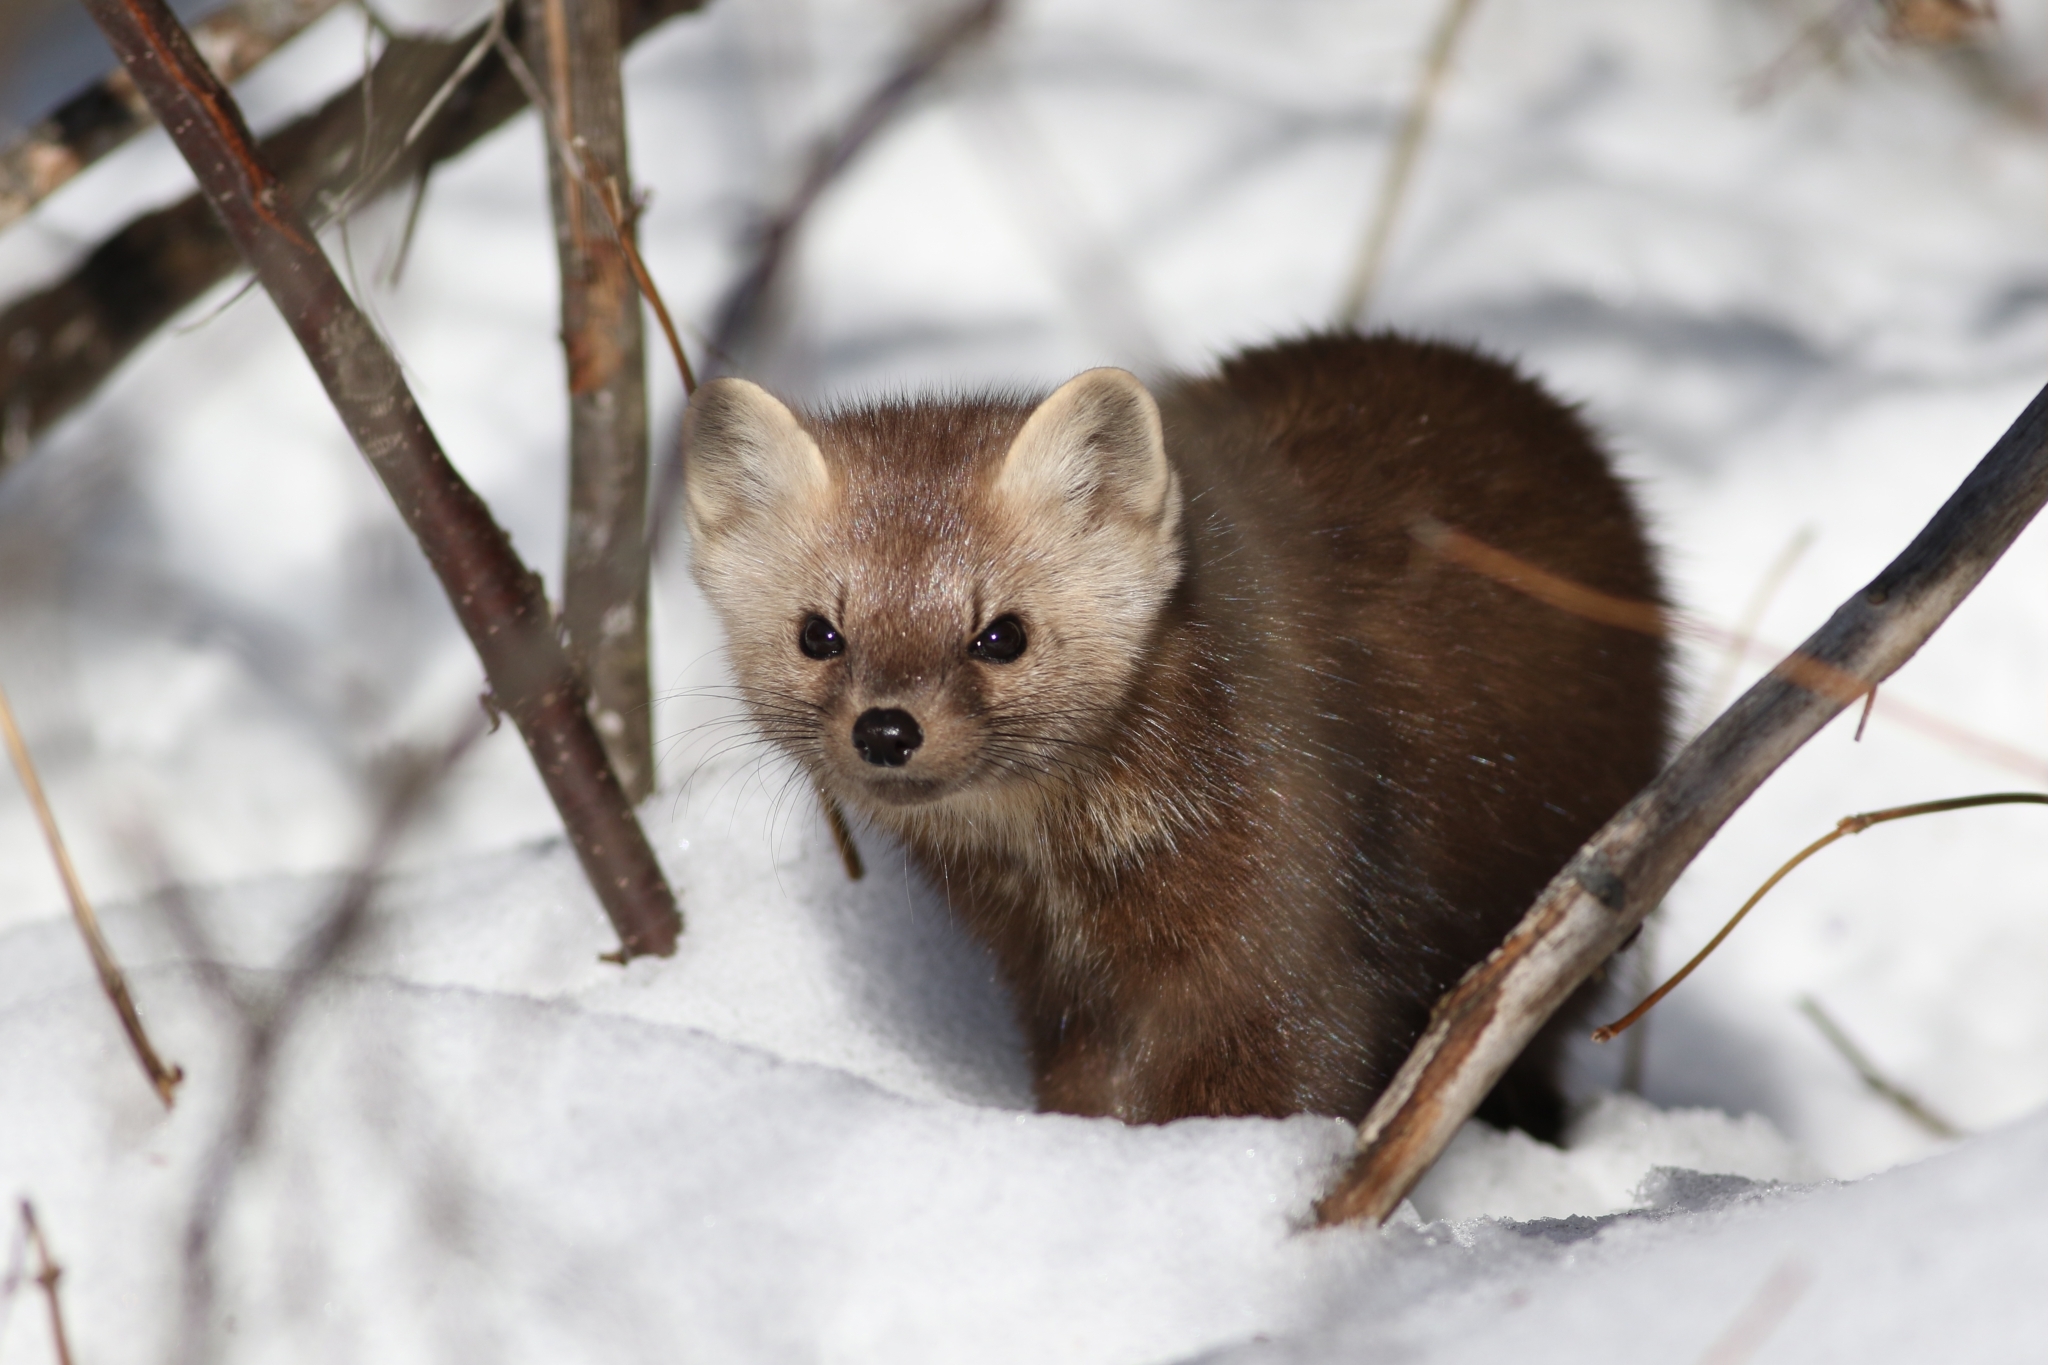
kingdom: Animalia
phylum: Chordata
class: Mammalia
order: Carnivora
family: Mustelidae
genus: Martes
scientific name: Martes americana
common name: American marten
